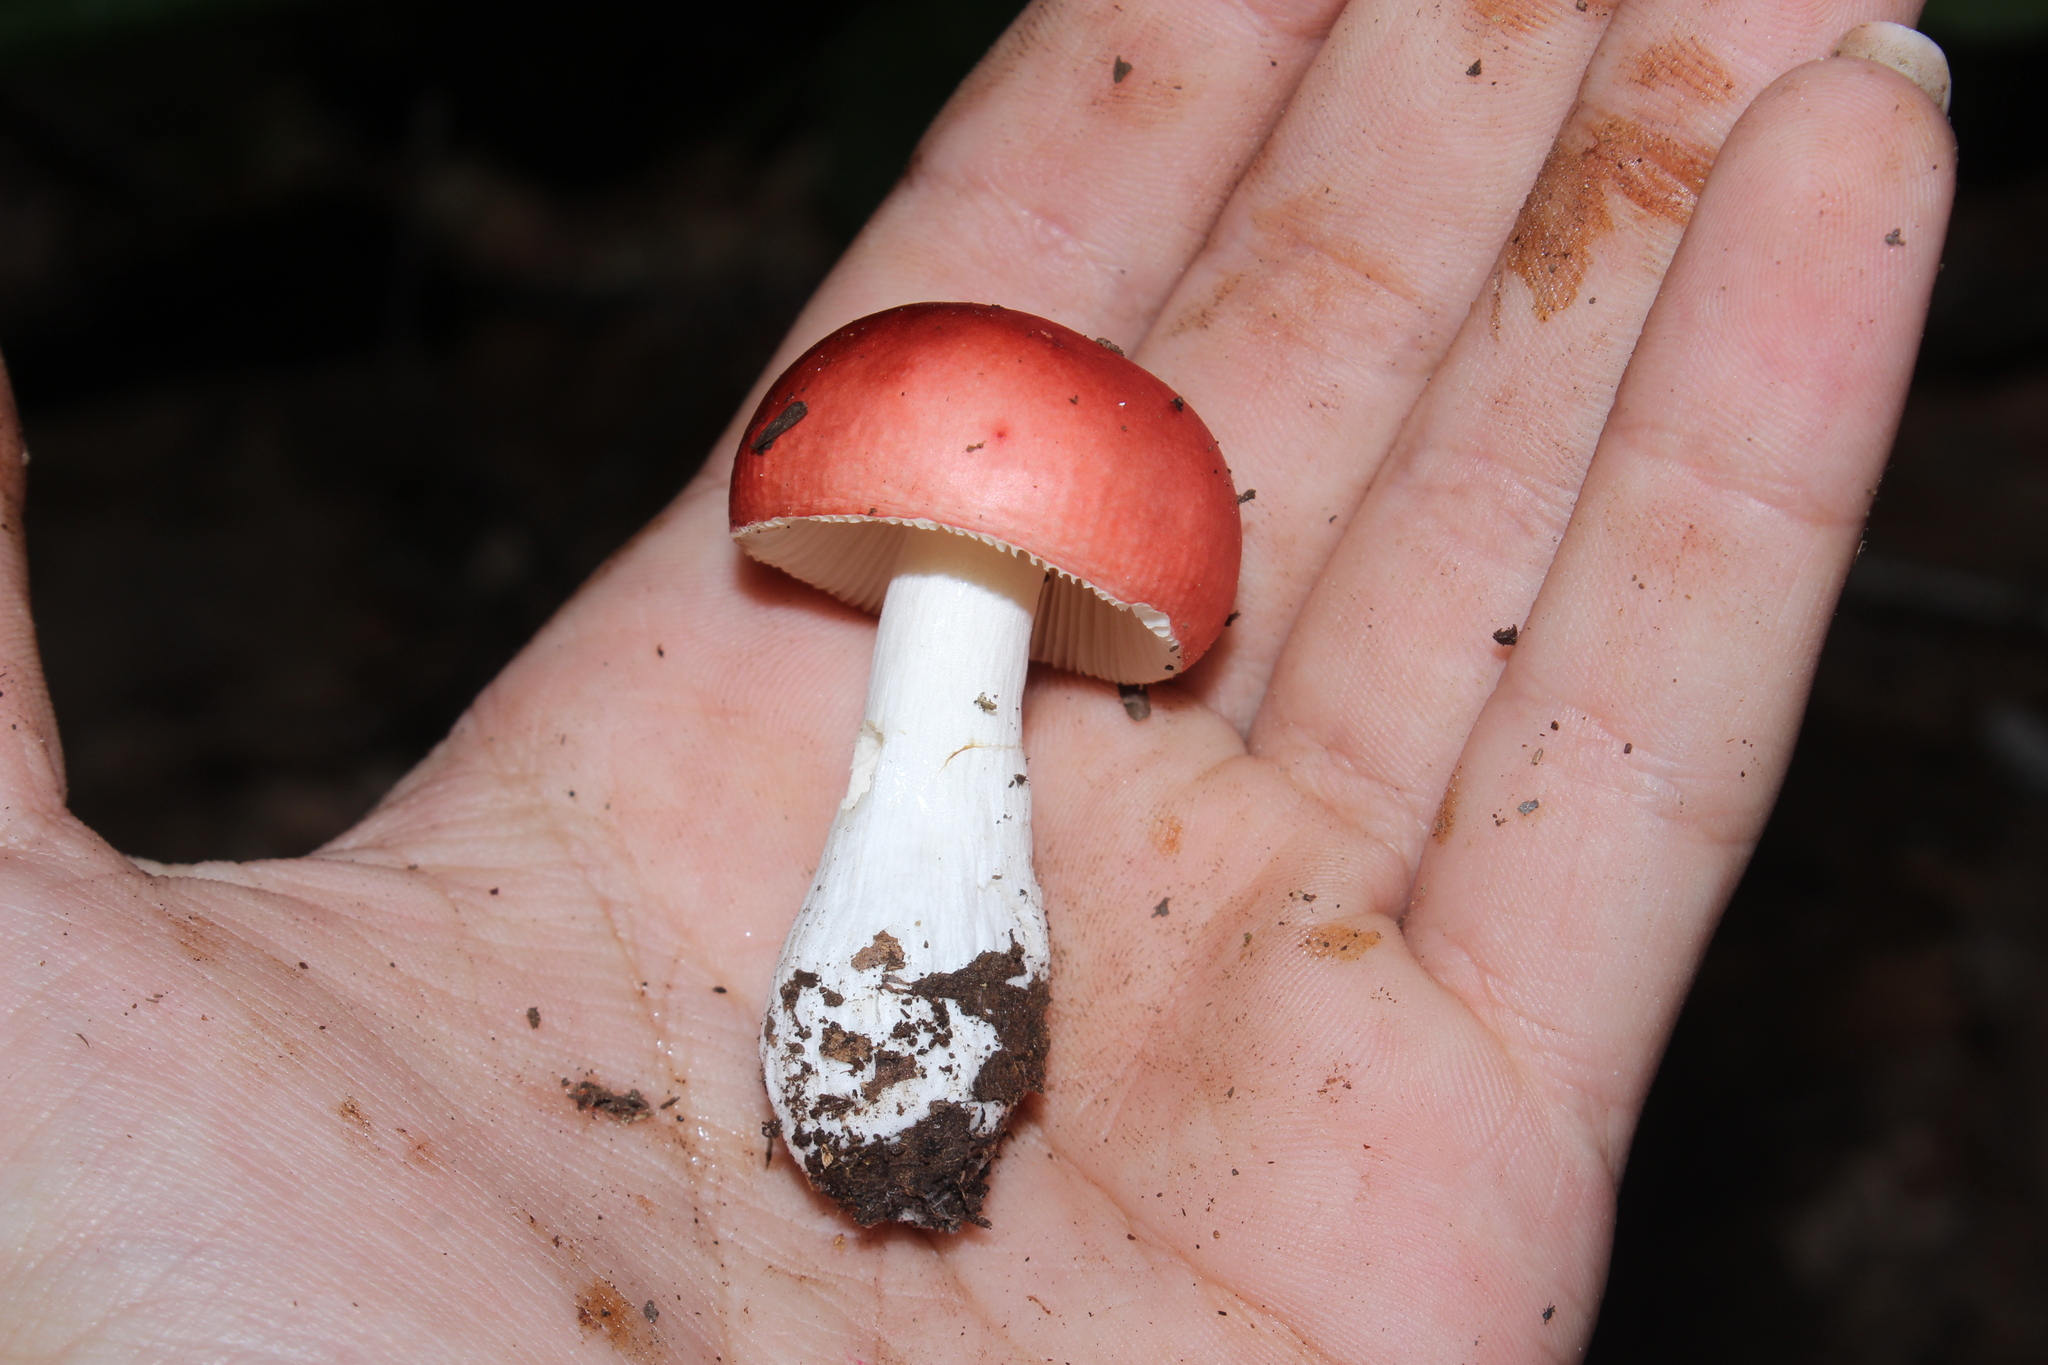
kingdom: Fungi
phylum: Basidiomycota
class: Agaricomycetes
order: Russulales
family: Russulaceae
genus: Russula
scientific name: Russula
